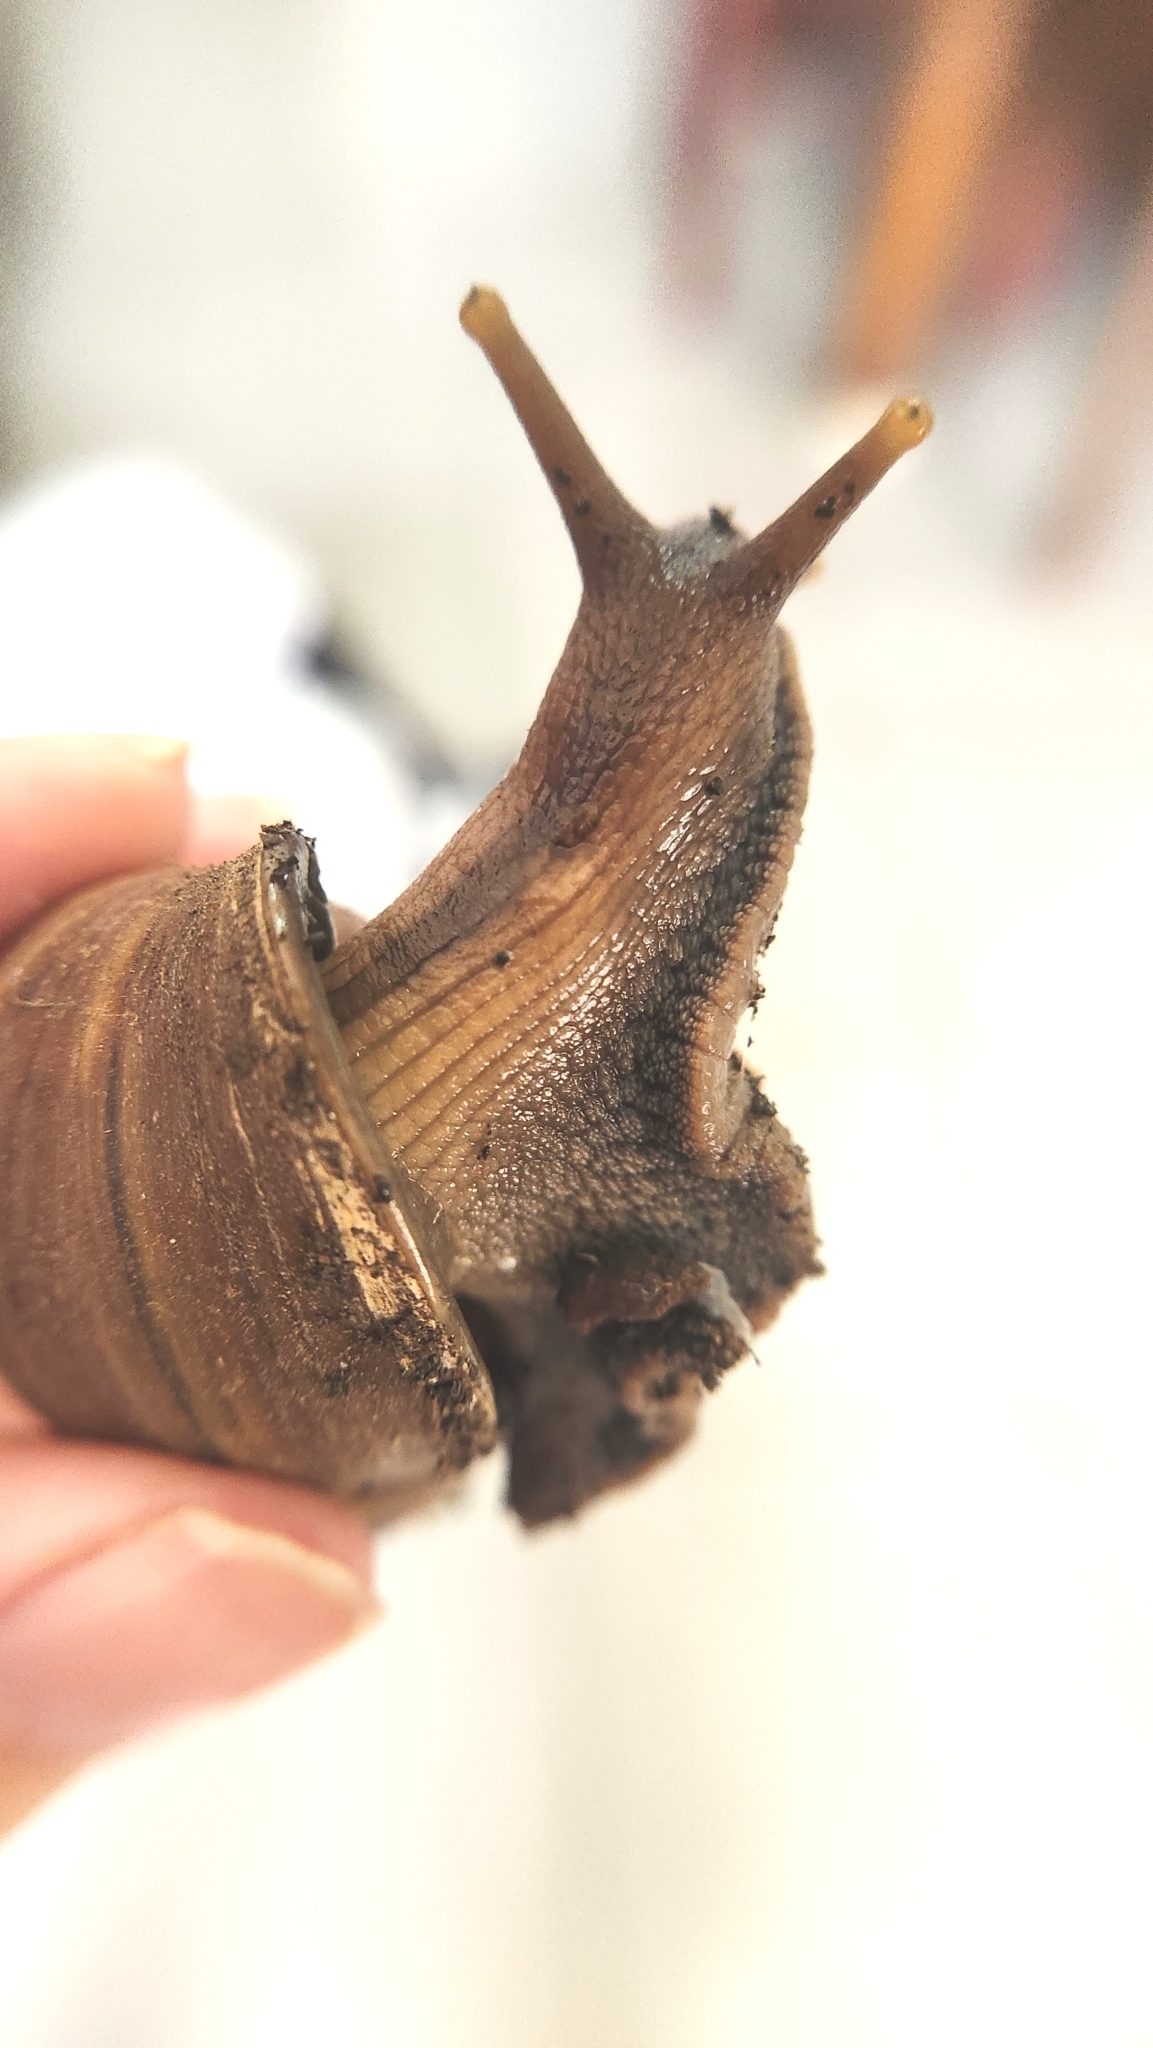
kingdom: Animalia
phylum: Mollusca
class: Gastropoda
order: Stylommatophora
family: Achatinidae
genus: Lissachatina
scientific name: Lissachatina fulica
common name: Giant african snail
